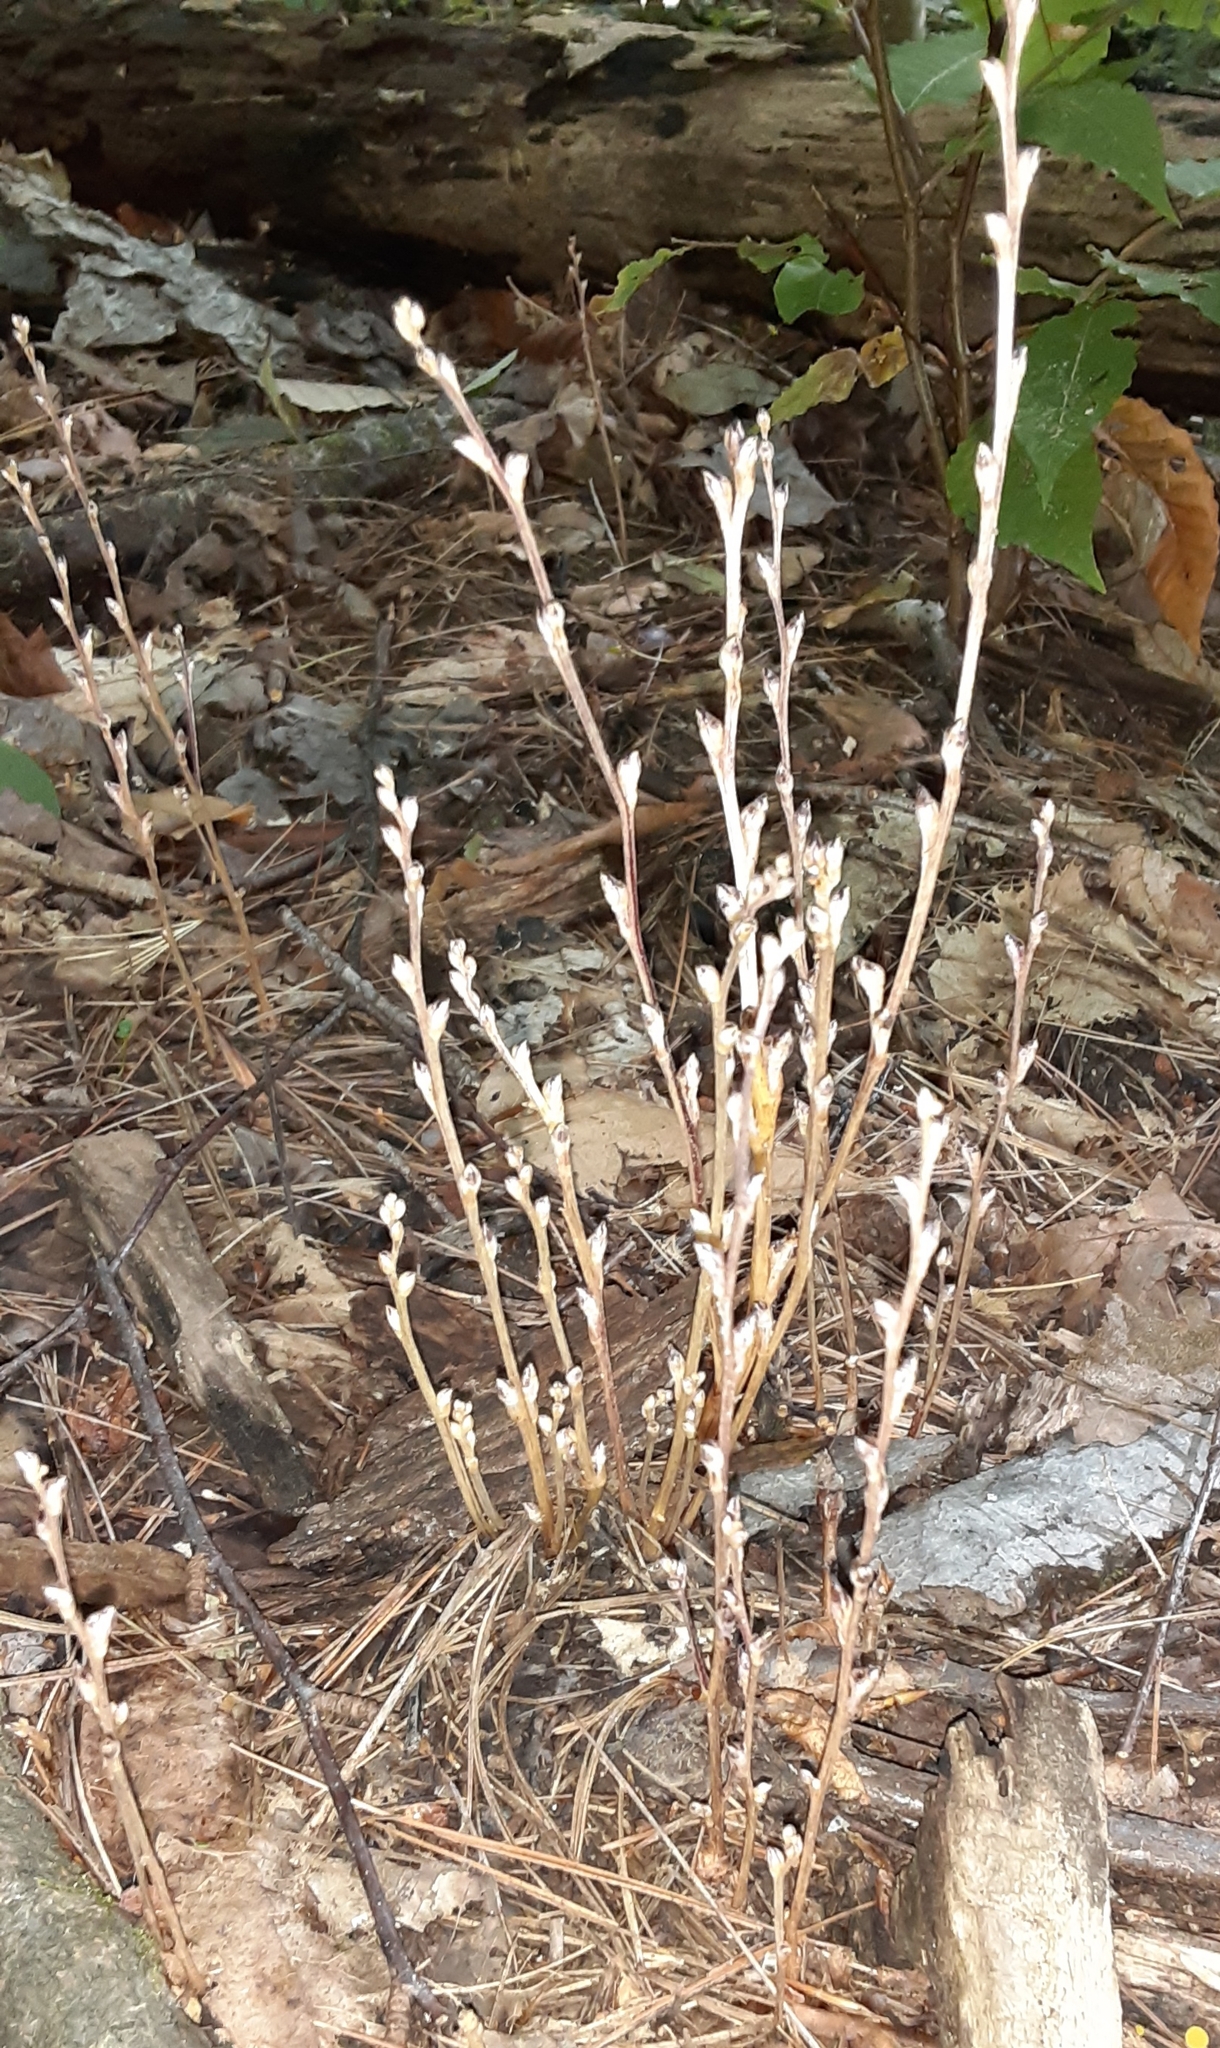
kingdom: Plantae
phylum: Tracheophyta
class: Magnoliopsida
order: Lamiales
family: Orobanchaceae
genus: Epifagus
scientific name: Epifagus virginiana
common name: Beechdrops
